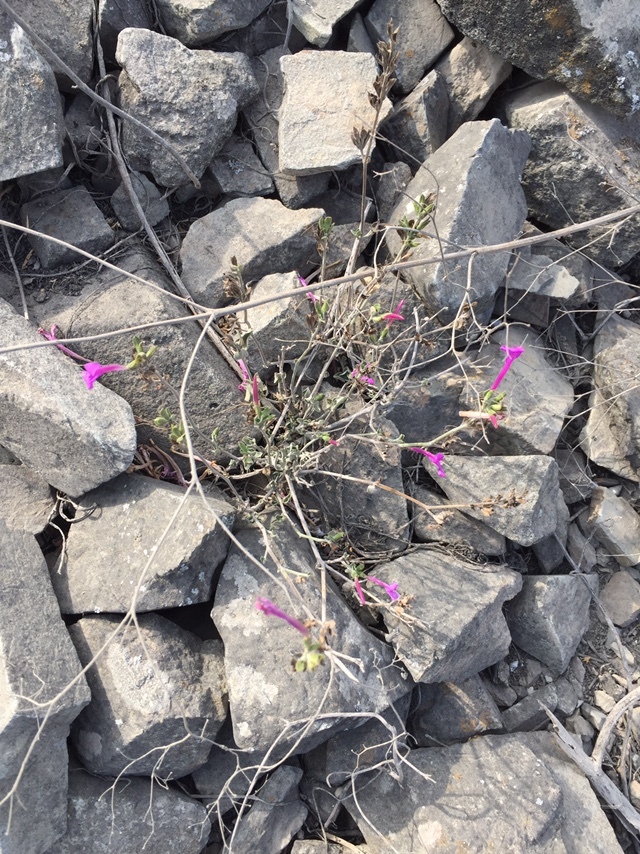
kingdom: Plantae
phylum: Tracheophyta
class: Magnoliopsida
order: Lamiales
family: Acanthaceae
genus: Dicliptera
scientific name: Dicliptera tomentosa
